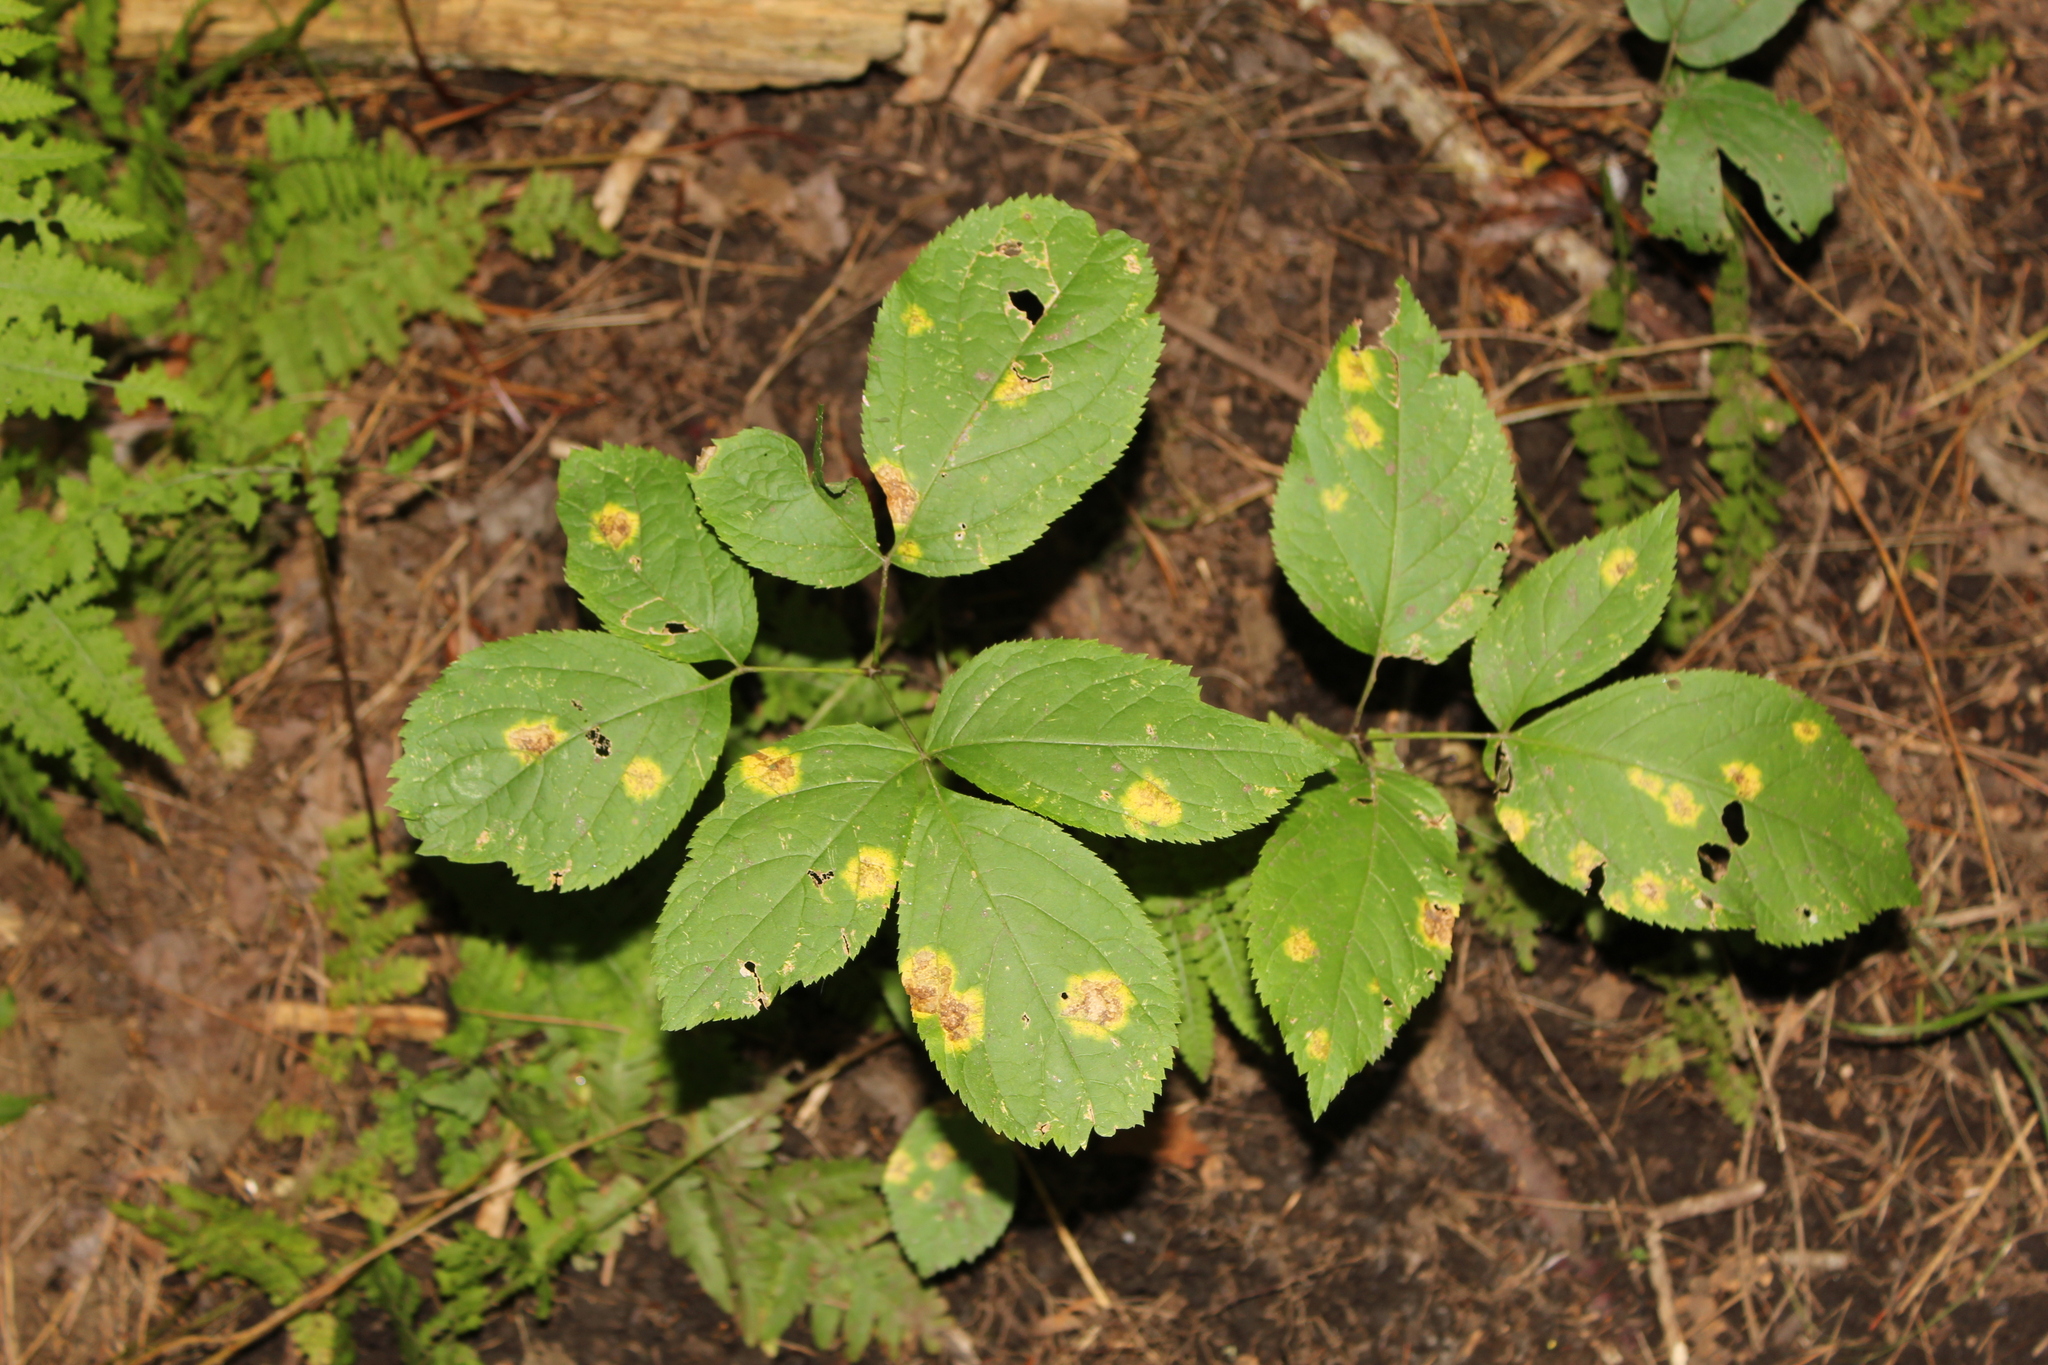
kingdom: Plantae
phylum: Tracheophyta
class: Magnoliopsida
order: Apiales
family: Araliaceae
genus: Aralia
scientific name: Aralia nudicaulis
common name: Wild sarsaparilla
